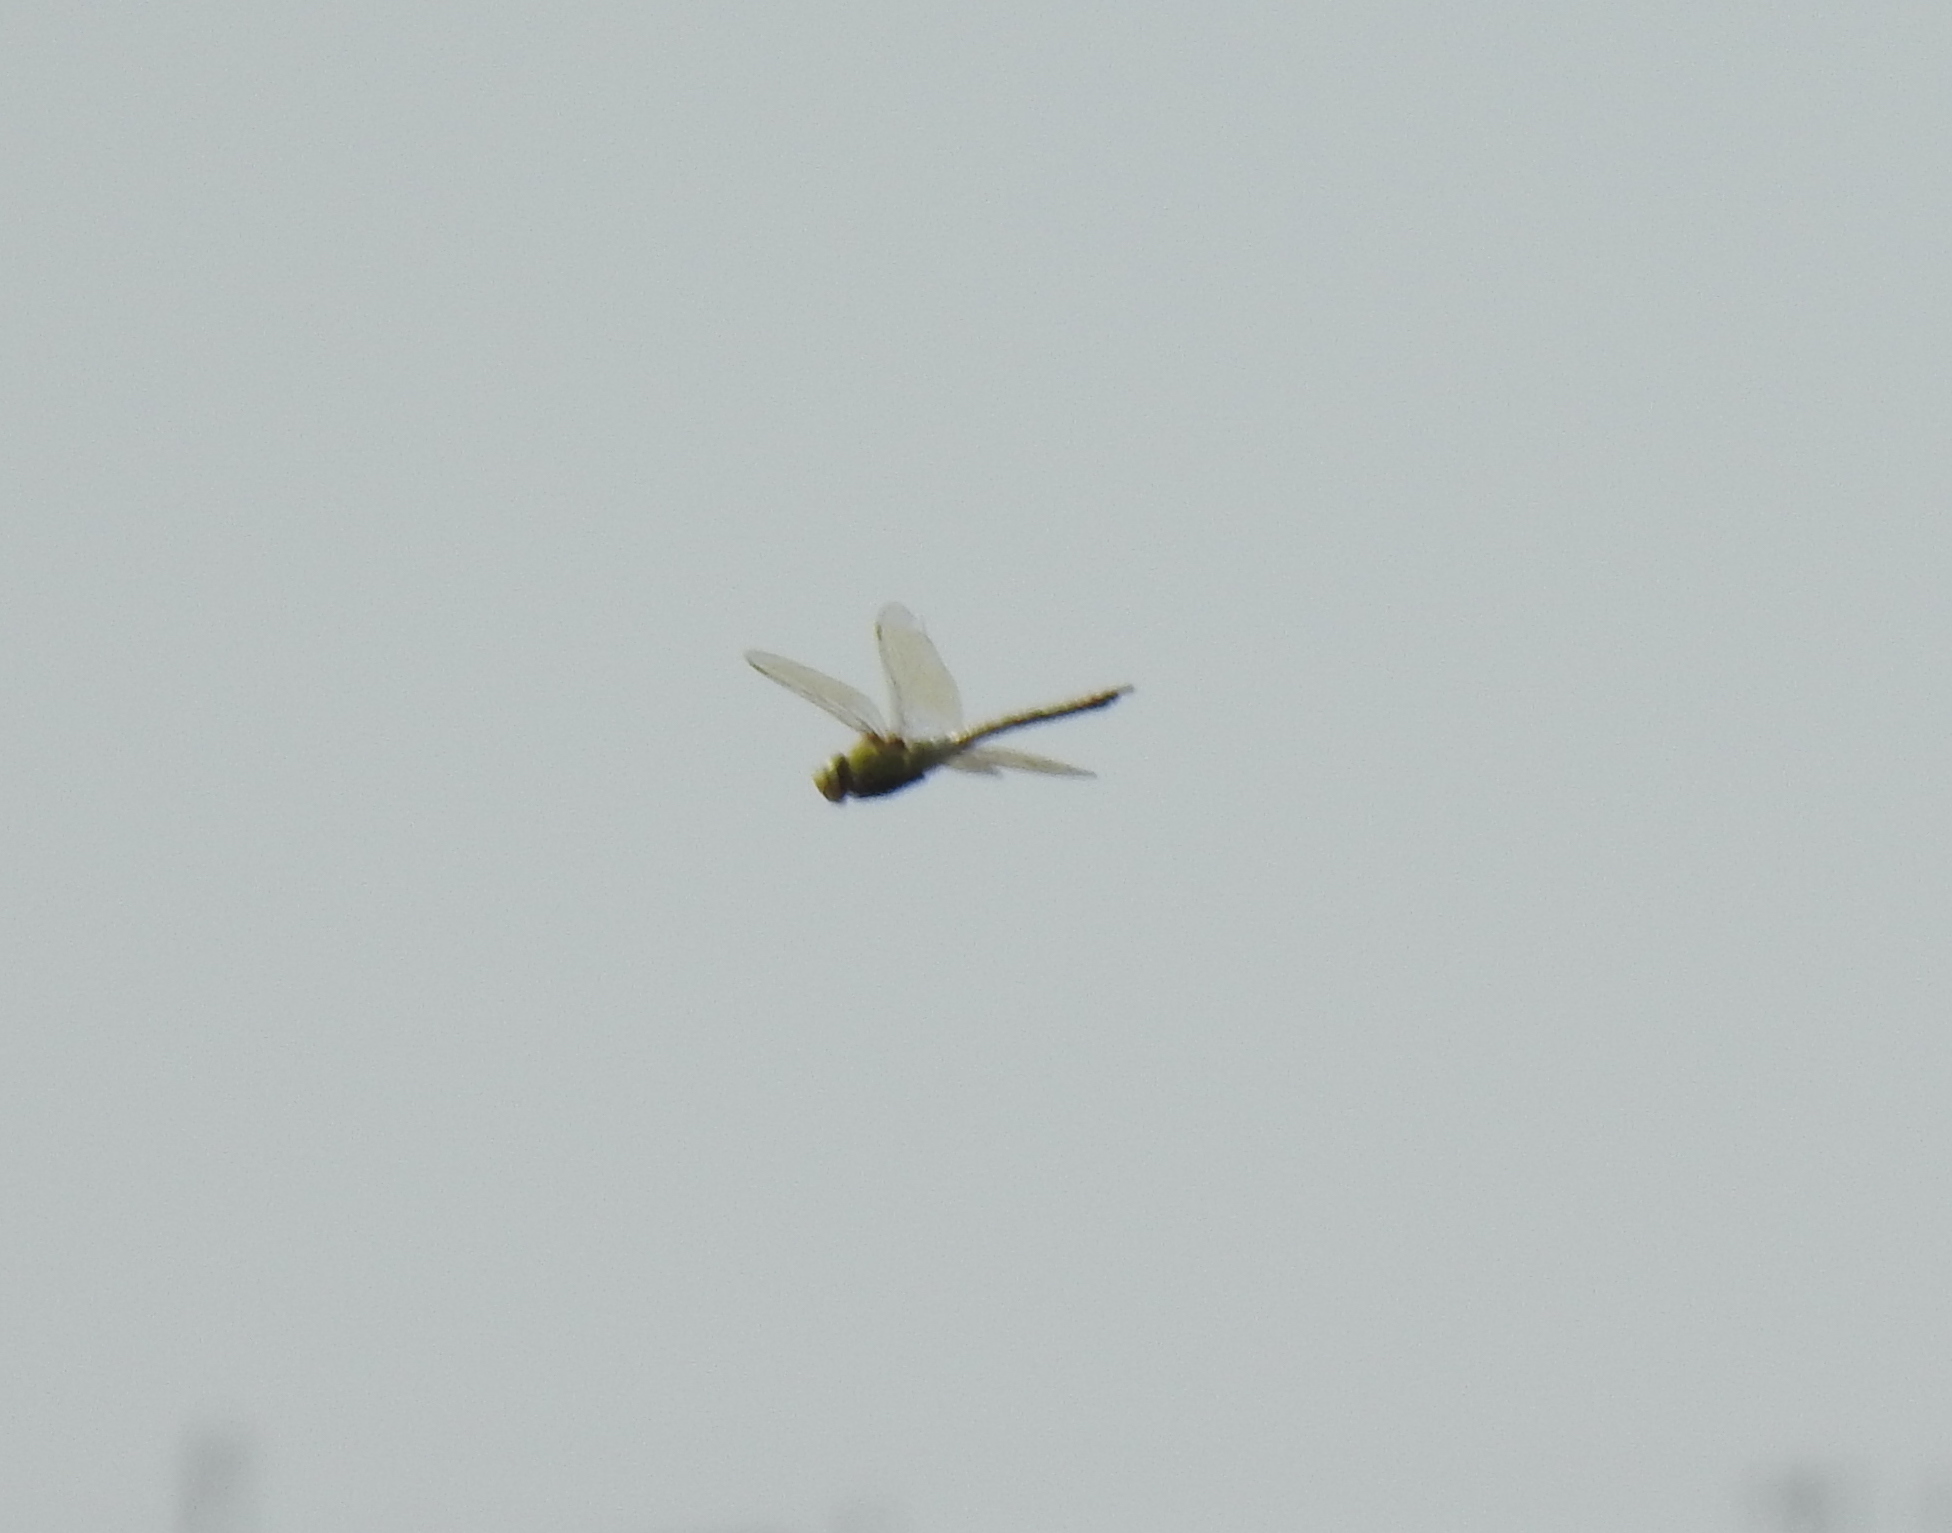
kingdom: Animalia
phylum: Arthropoda
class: Insecta
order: Odonata
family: Aeshnidae
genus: Anax
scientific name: Anax imperator
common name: Emperor dragonfly
